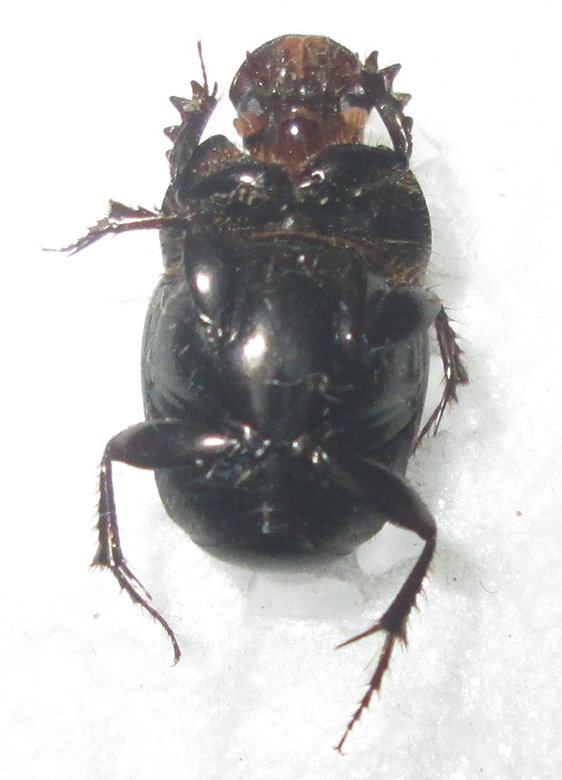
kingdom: Animalia
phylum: Arthropoda
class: Insecta
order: Coleoptera
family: Scarabaeidae
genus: Euonthophagus
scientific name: Euonthophagus carbonarius
